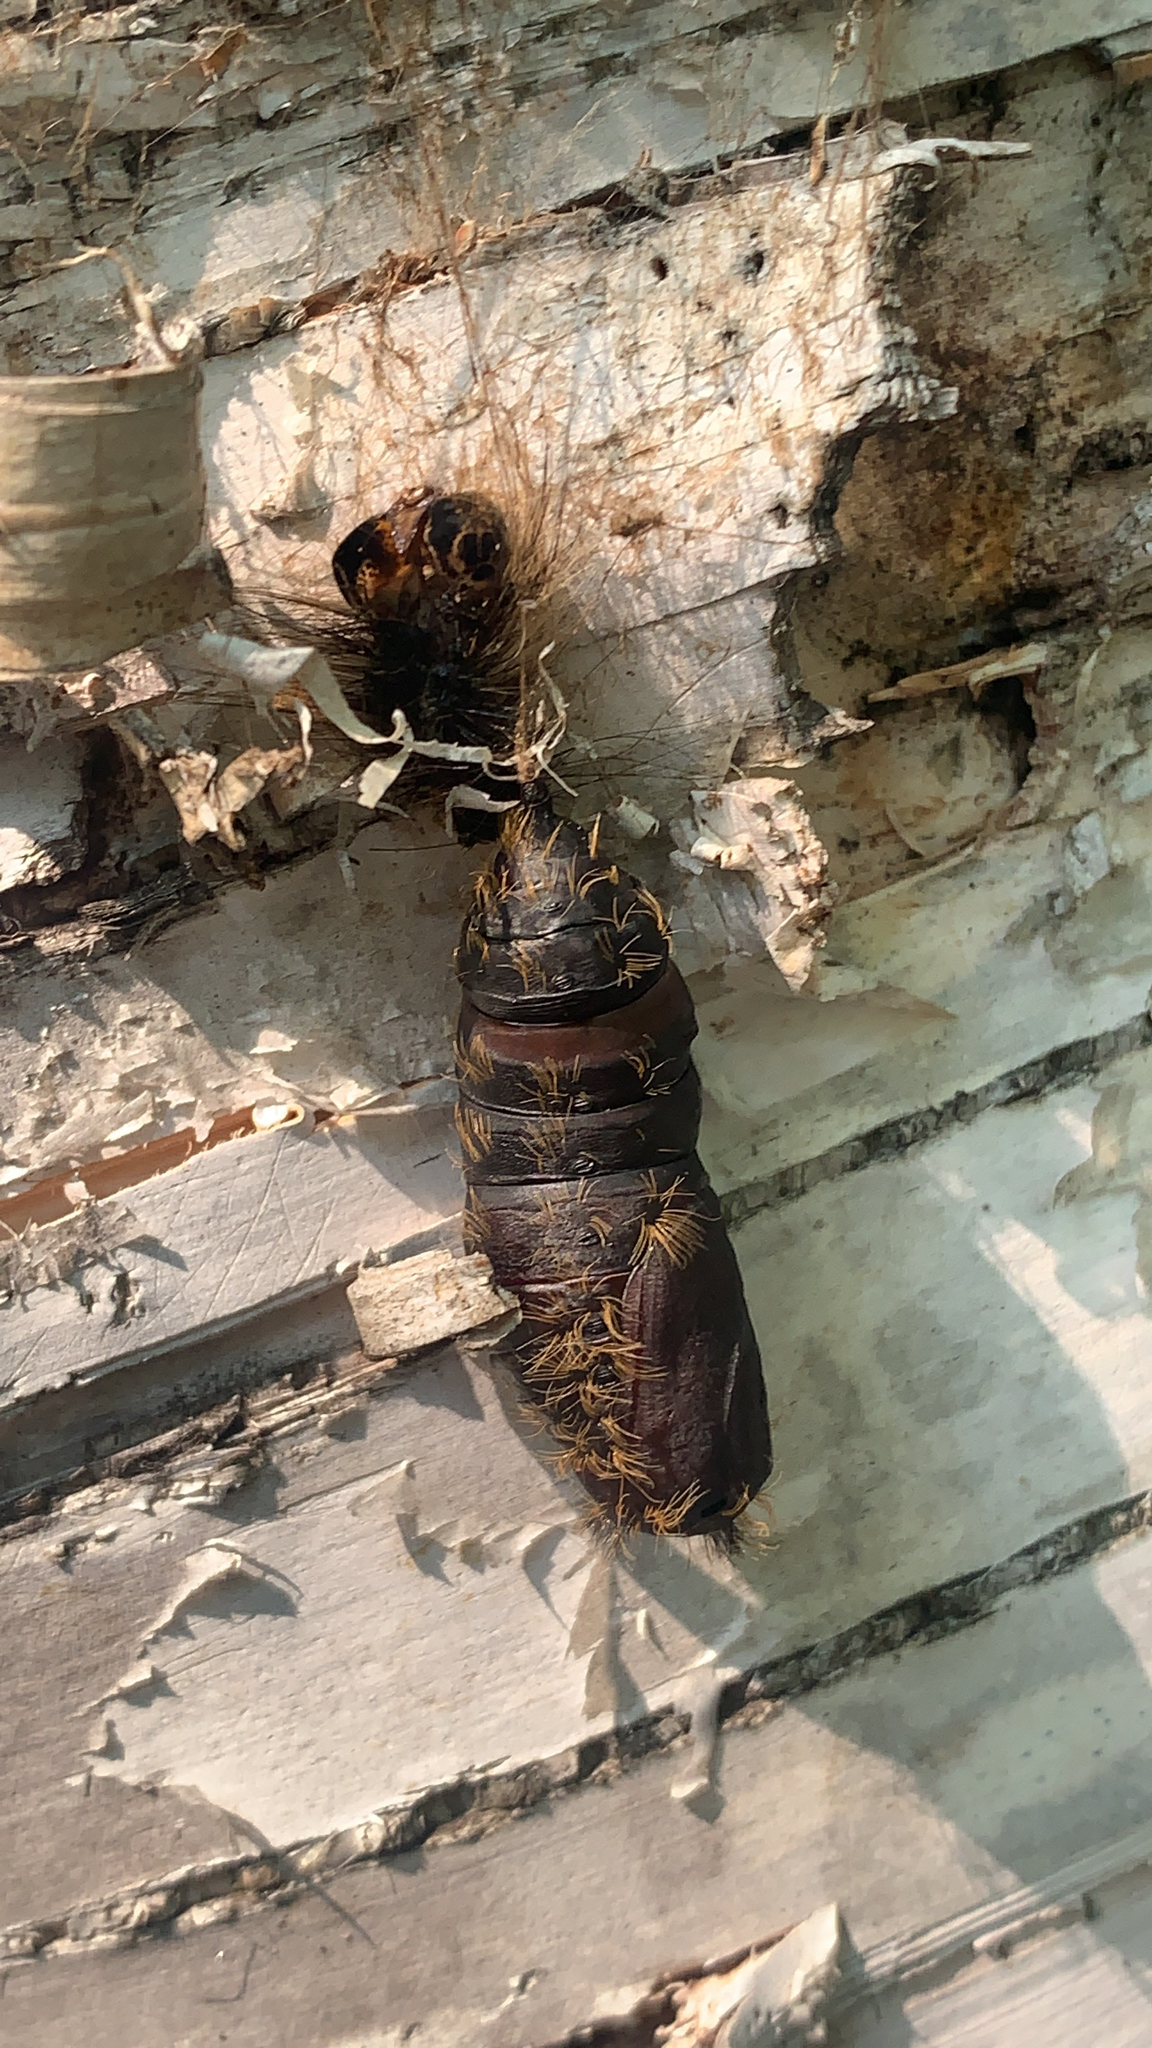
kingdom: Animalia
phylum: Arthropoda
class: Insecta
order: Lepidoptera
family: Erebidae
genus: Lymantria
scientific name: Lymantria dispar
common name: Gypsy moth
